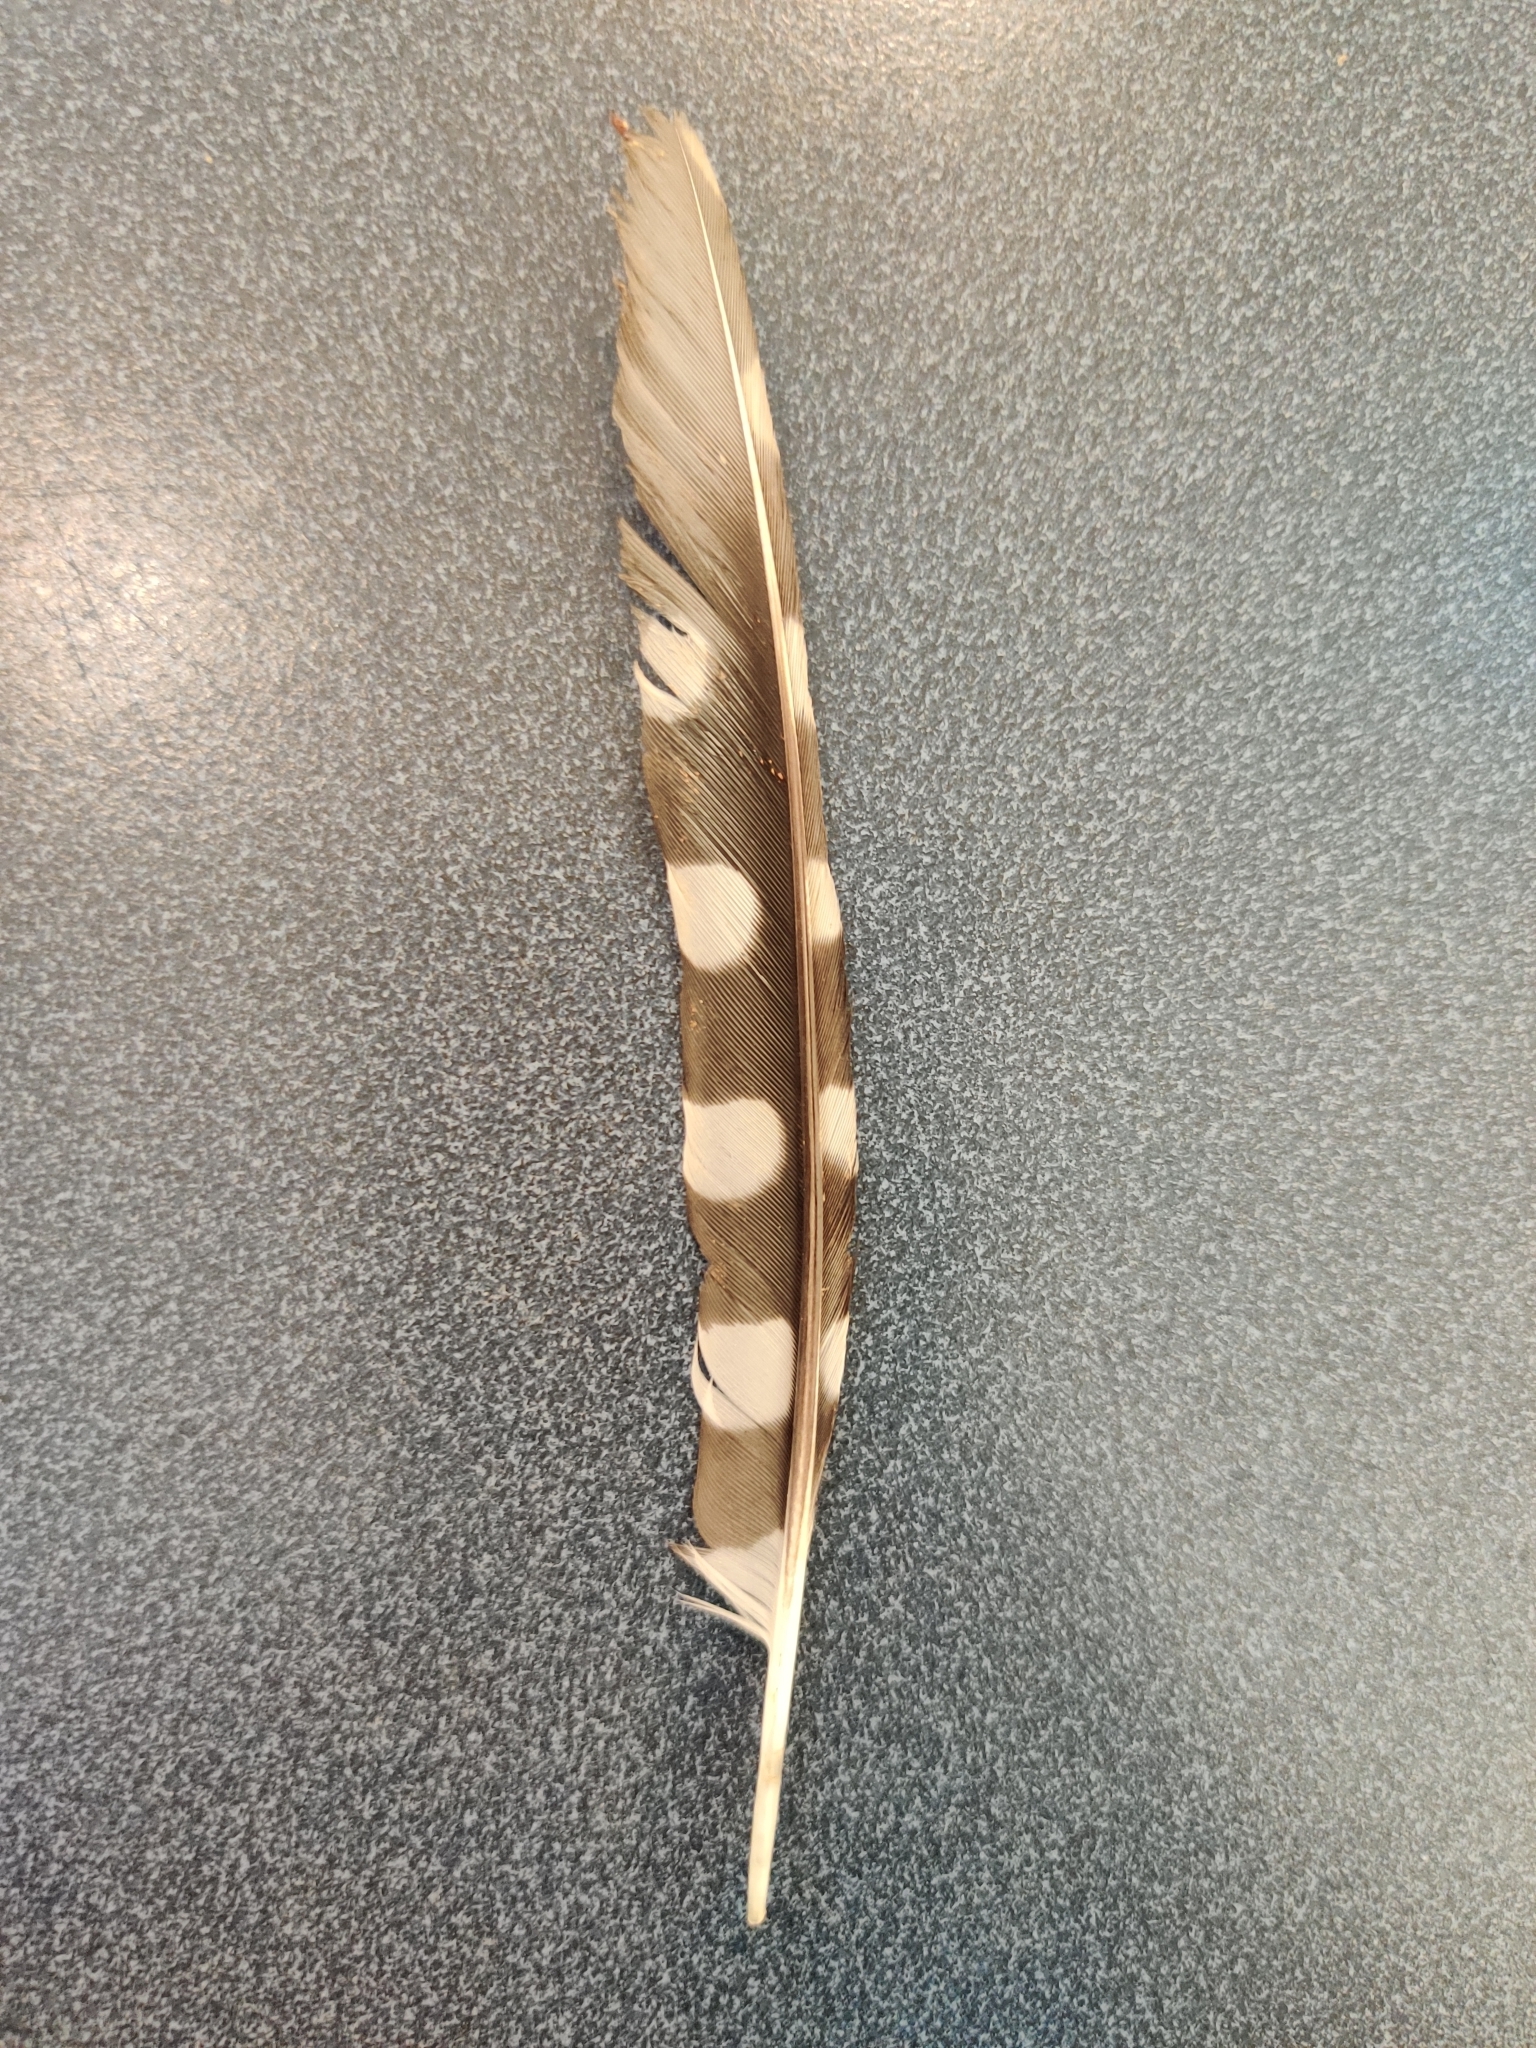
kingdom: Animalia
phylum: Chordata
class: Aves
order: Piciformes
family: Picidae
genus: Dryobates
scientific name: Dryobates pubescens
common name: Downy woodpecker
